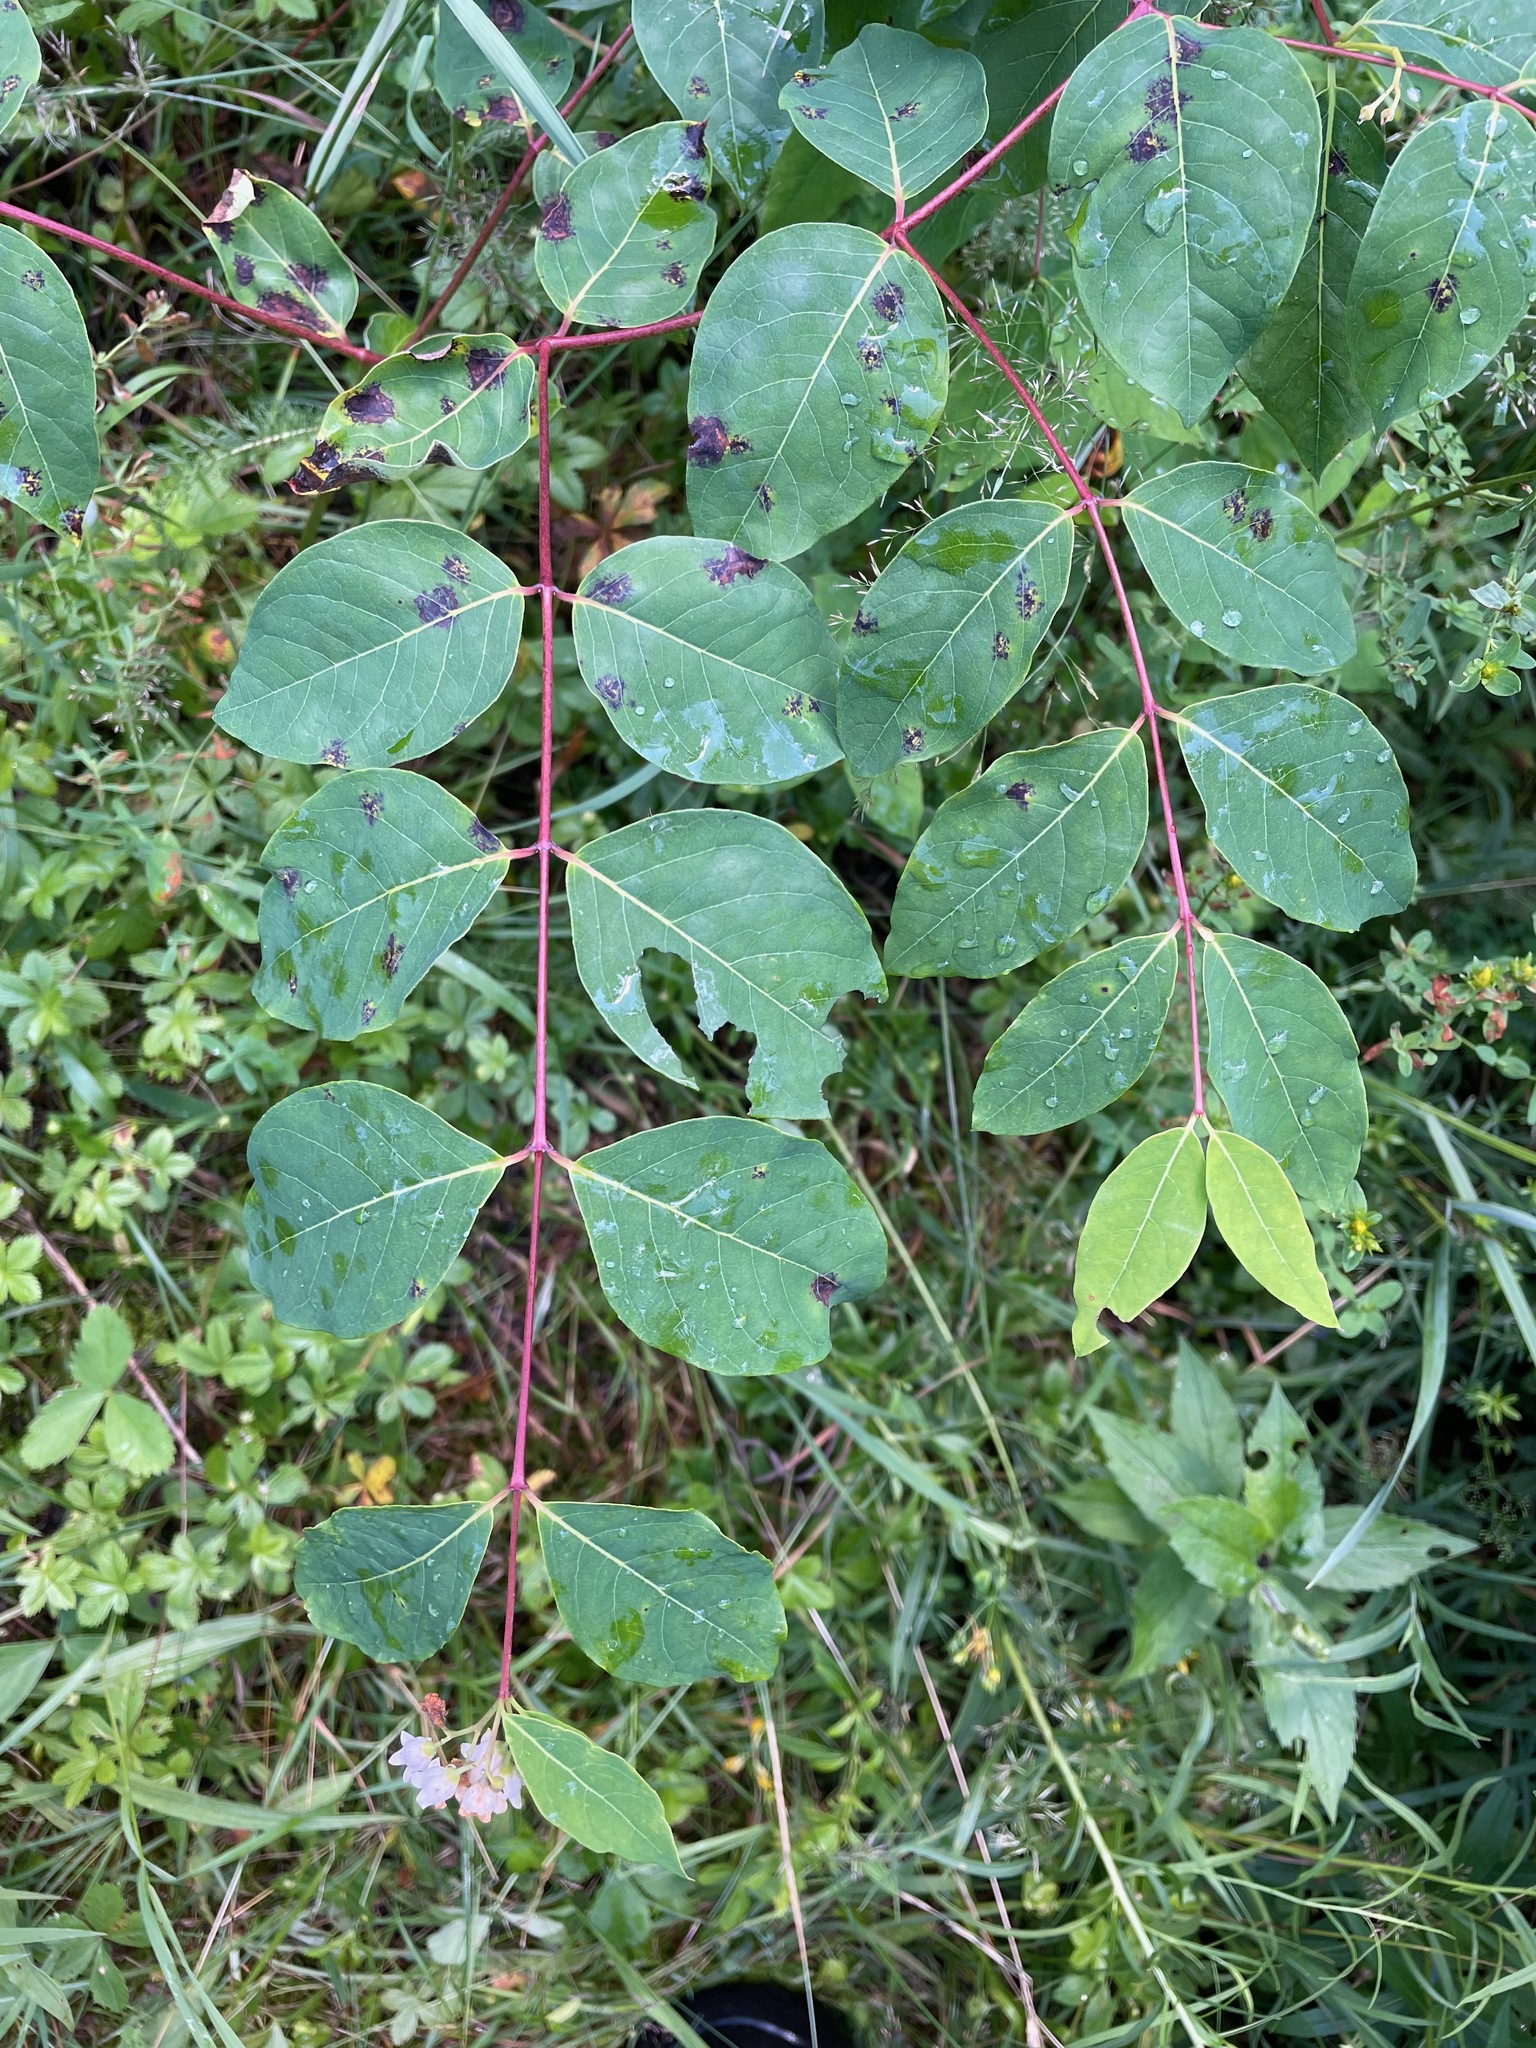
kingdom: Plantae
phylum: Tracheophyta
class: Magnoliopsida
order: Gentianales
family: Apocynaceae
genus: Apocynum
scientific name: Apocynum androsaemifolium
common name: Spreading dogbane
